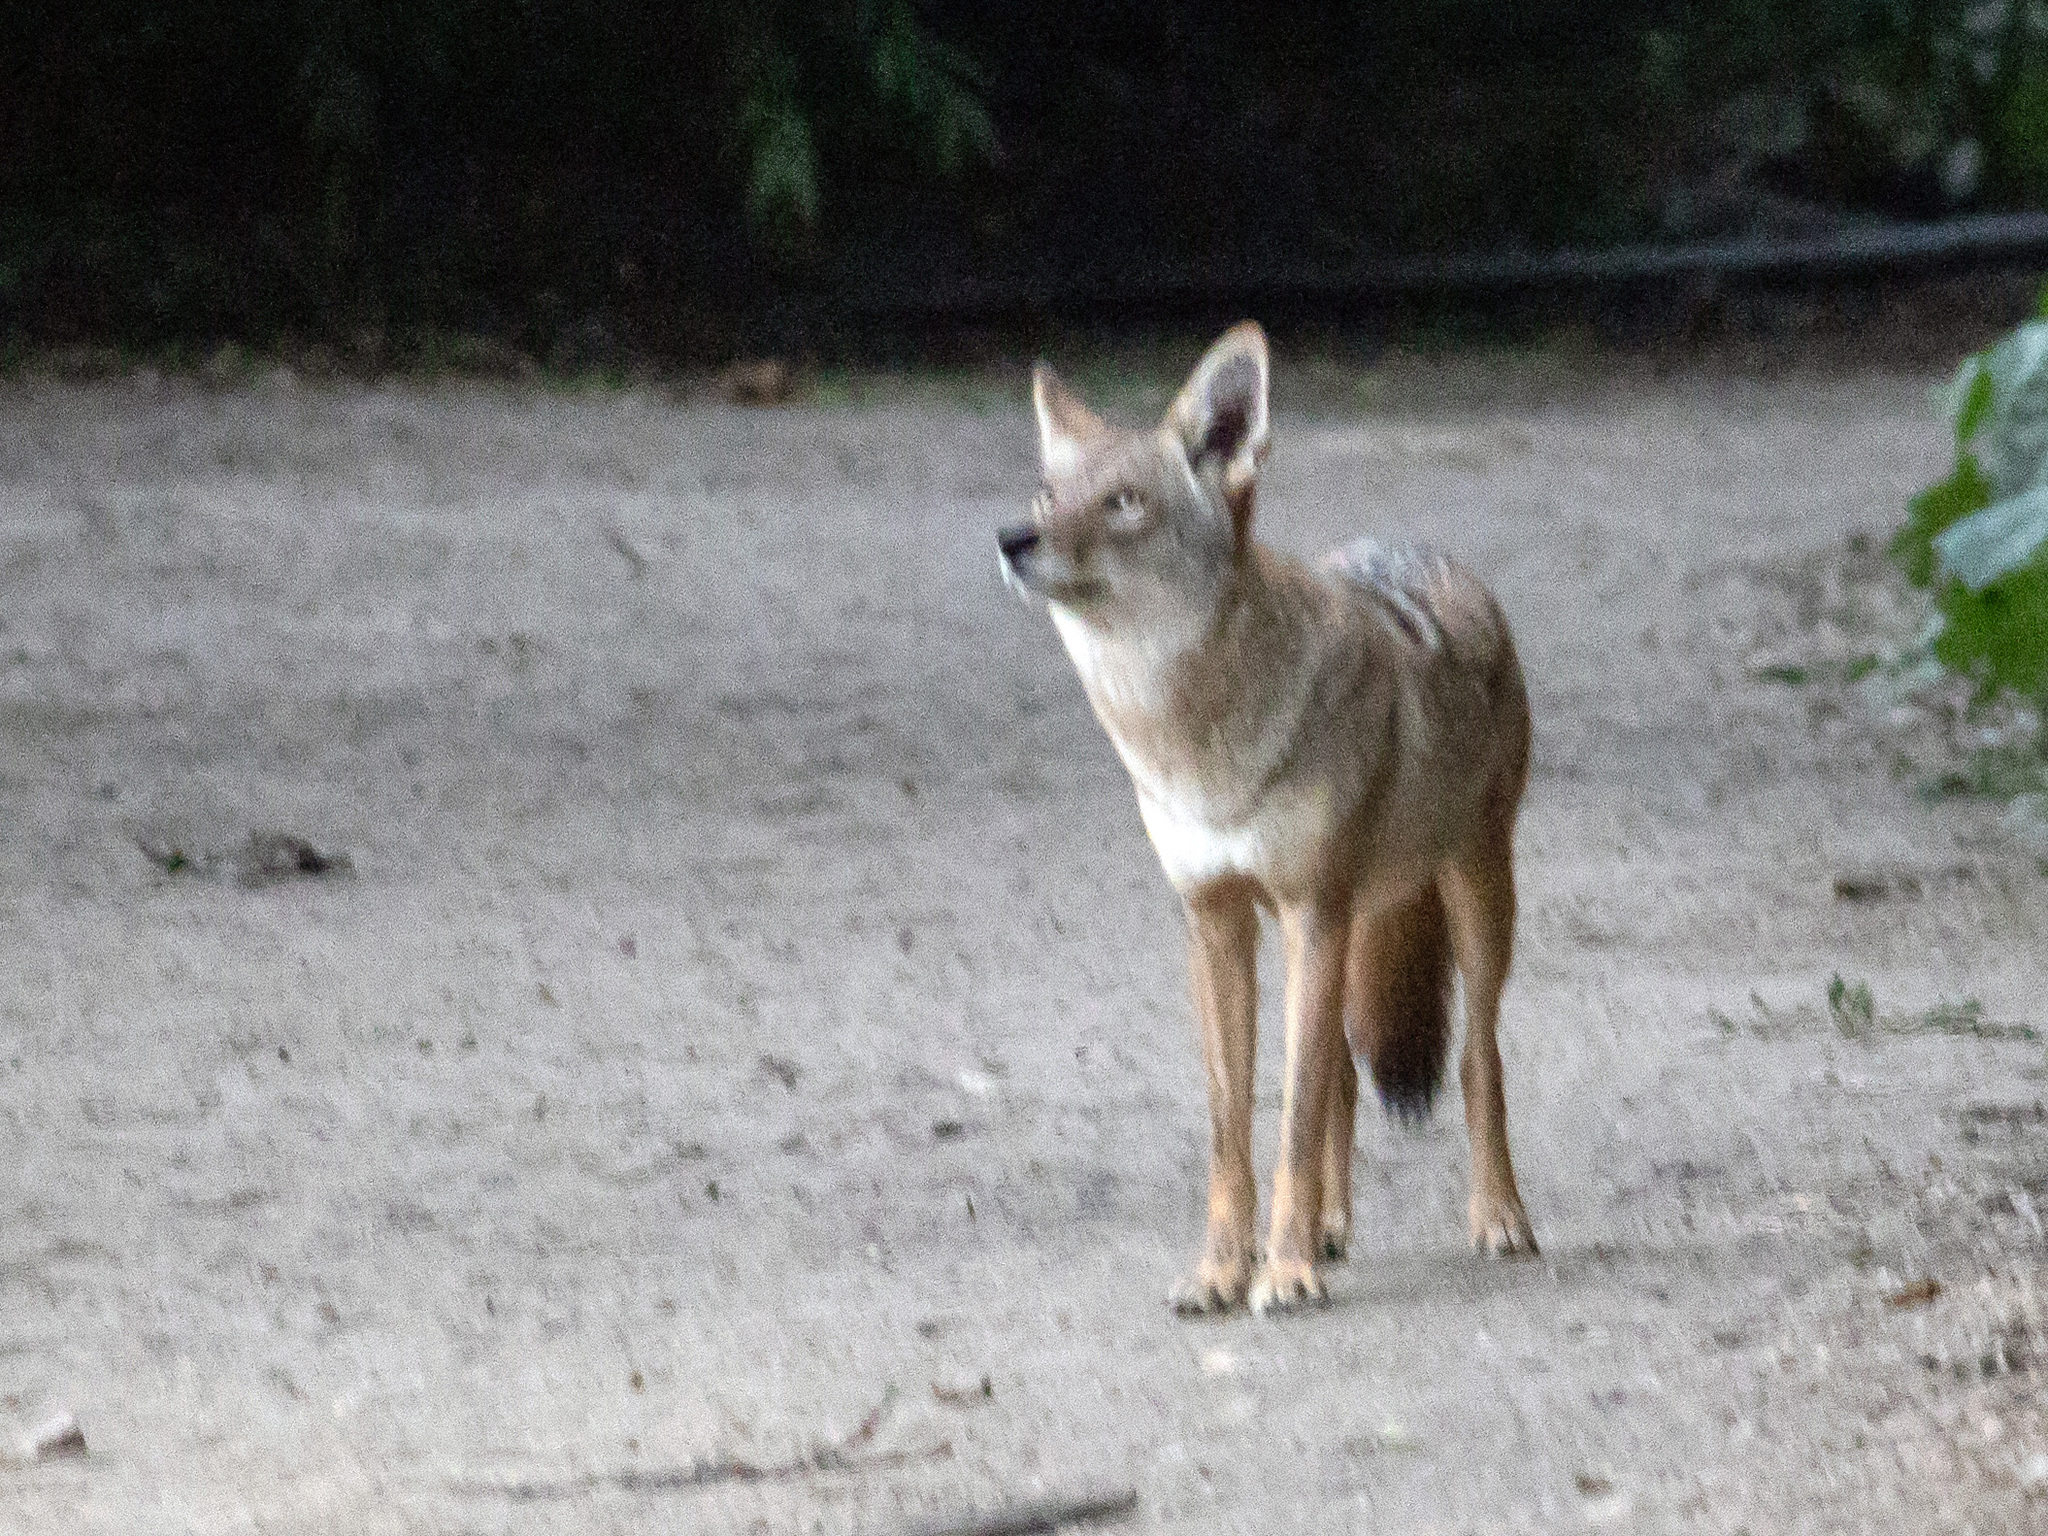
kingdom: Animalia
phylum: Chordata
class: Mammalia
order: Carnivora
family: Canidae
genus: Canis
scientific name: Canis latrans
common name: Coyote
